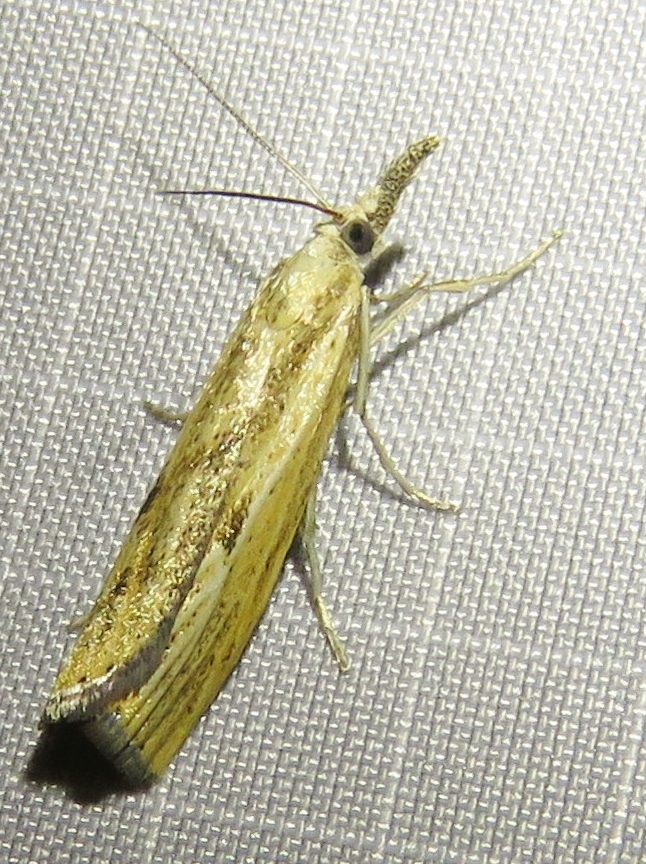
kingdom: Animalia
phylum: Arthropoda
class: Insecta
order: Lepidoptera
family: Crambidae
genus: Agriphila
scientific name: Agriphila inquinatella
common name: Barred grass-veneer
